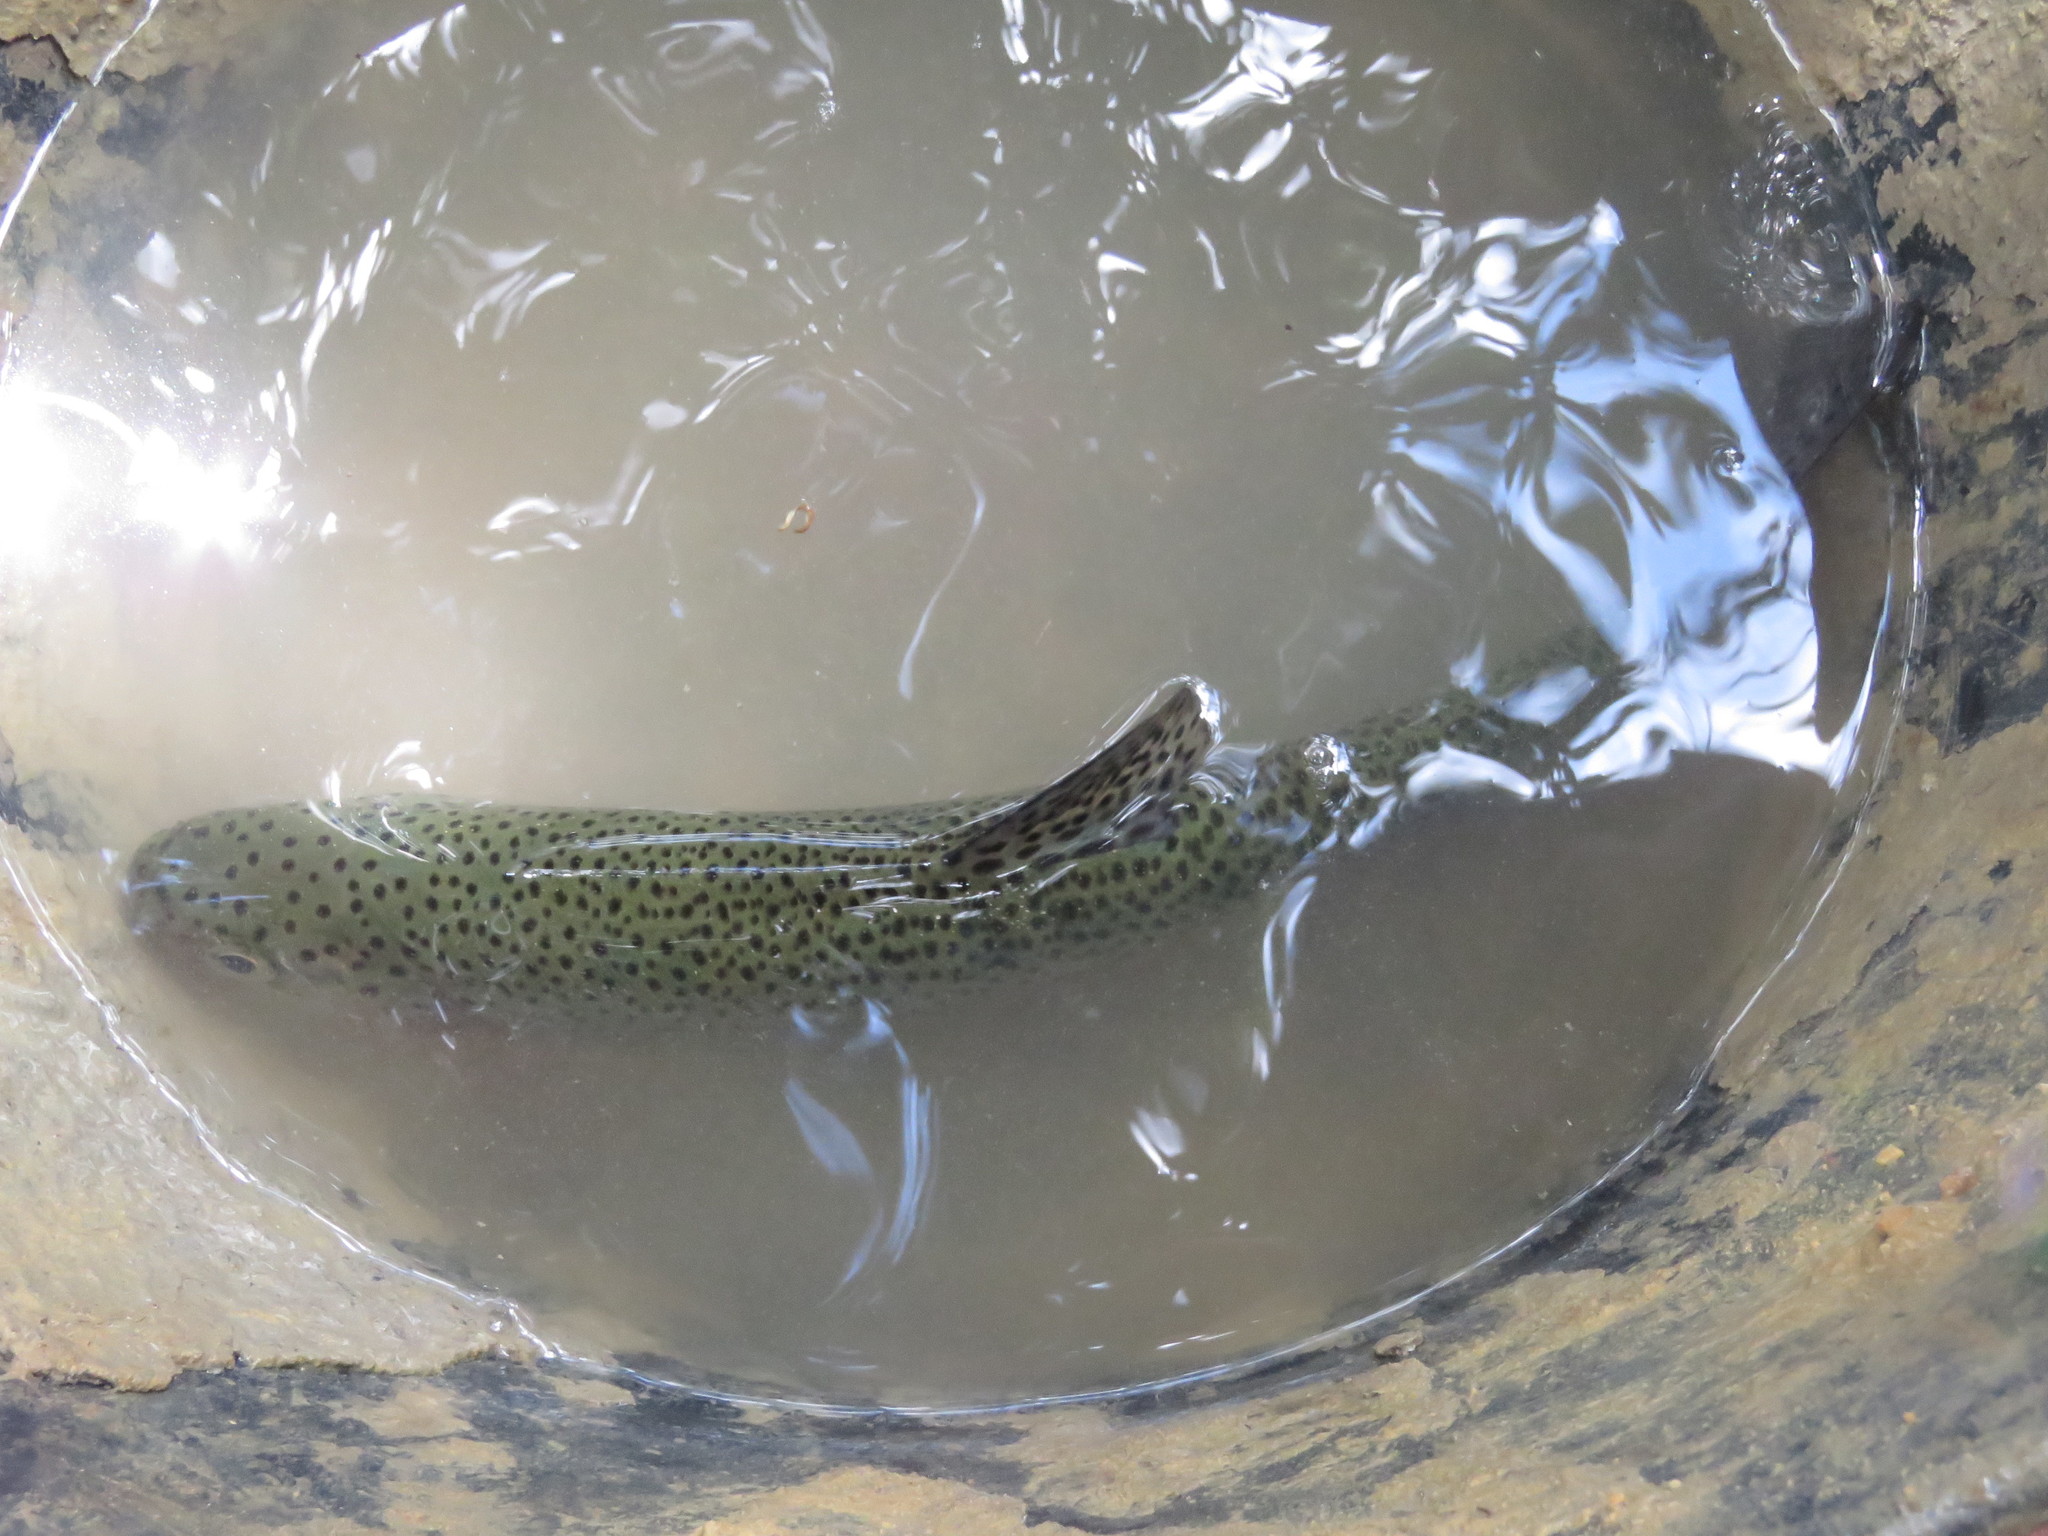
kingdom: Animalia
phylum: Chordata
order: Salmoniformes
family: Salmonidae
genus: Oncorhynchus
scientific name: Oncorhynchus mykiss
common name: Rainbow trout
